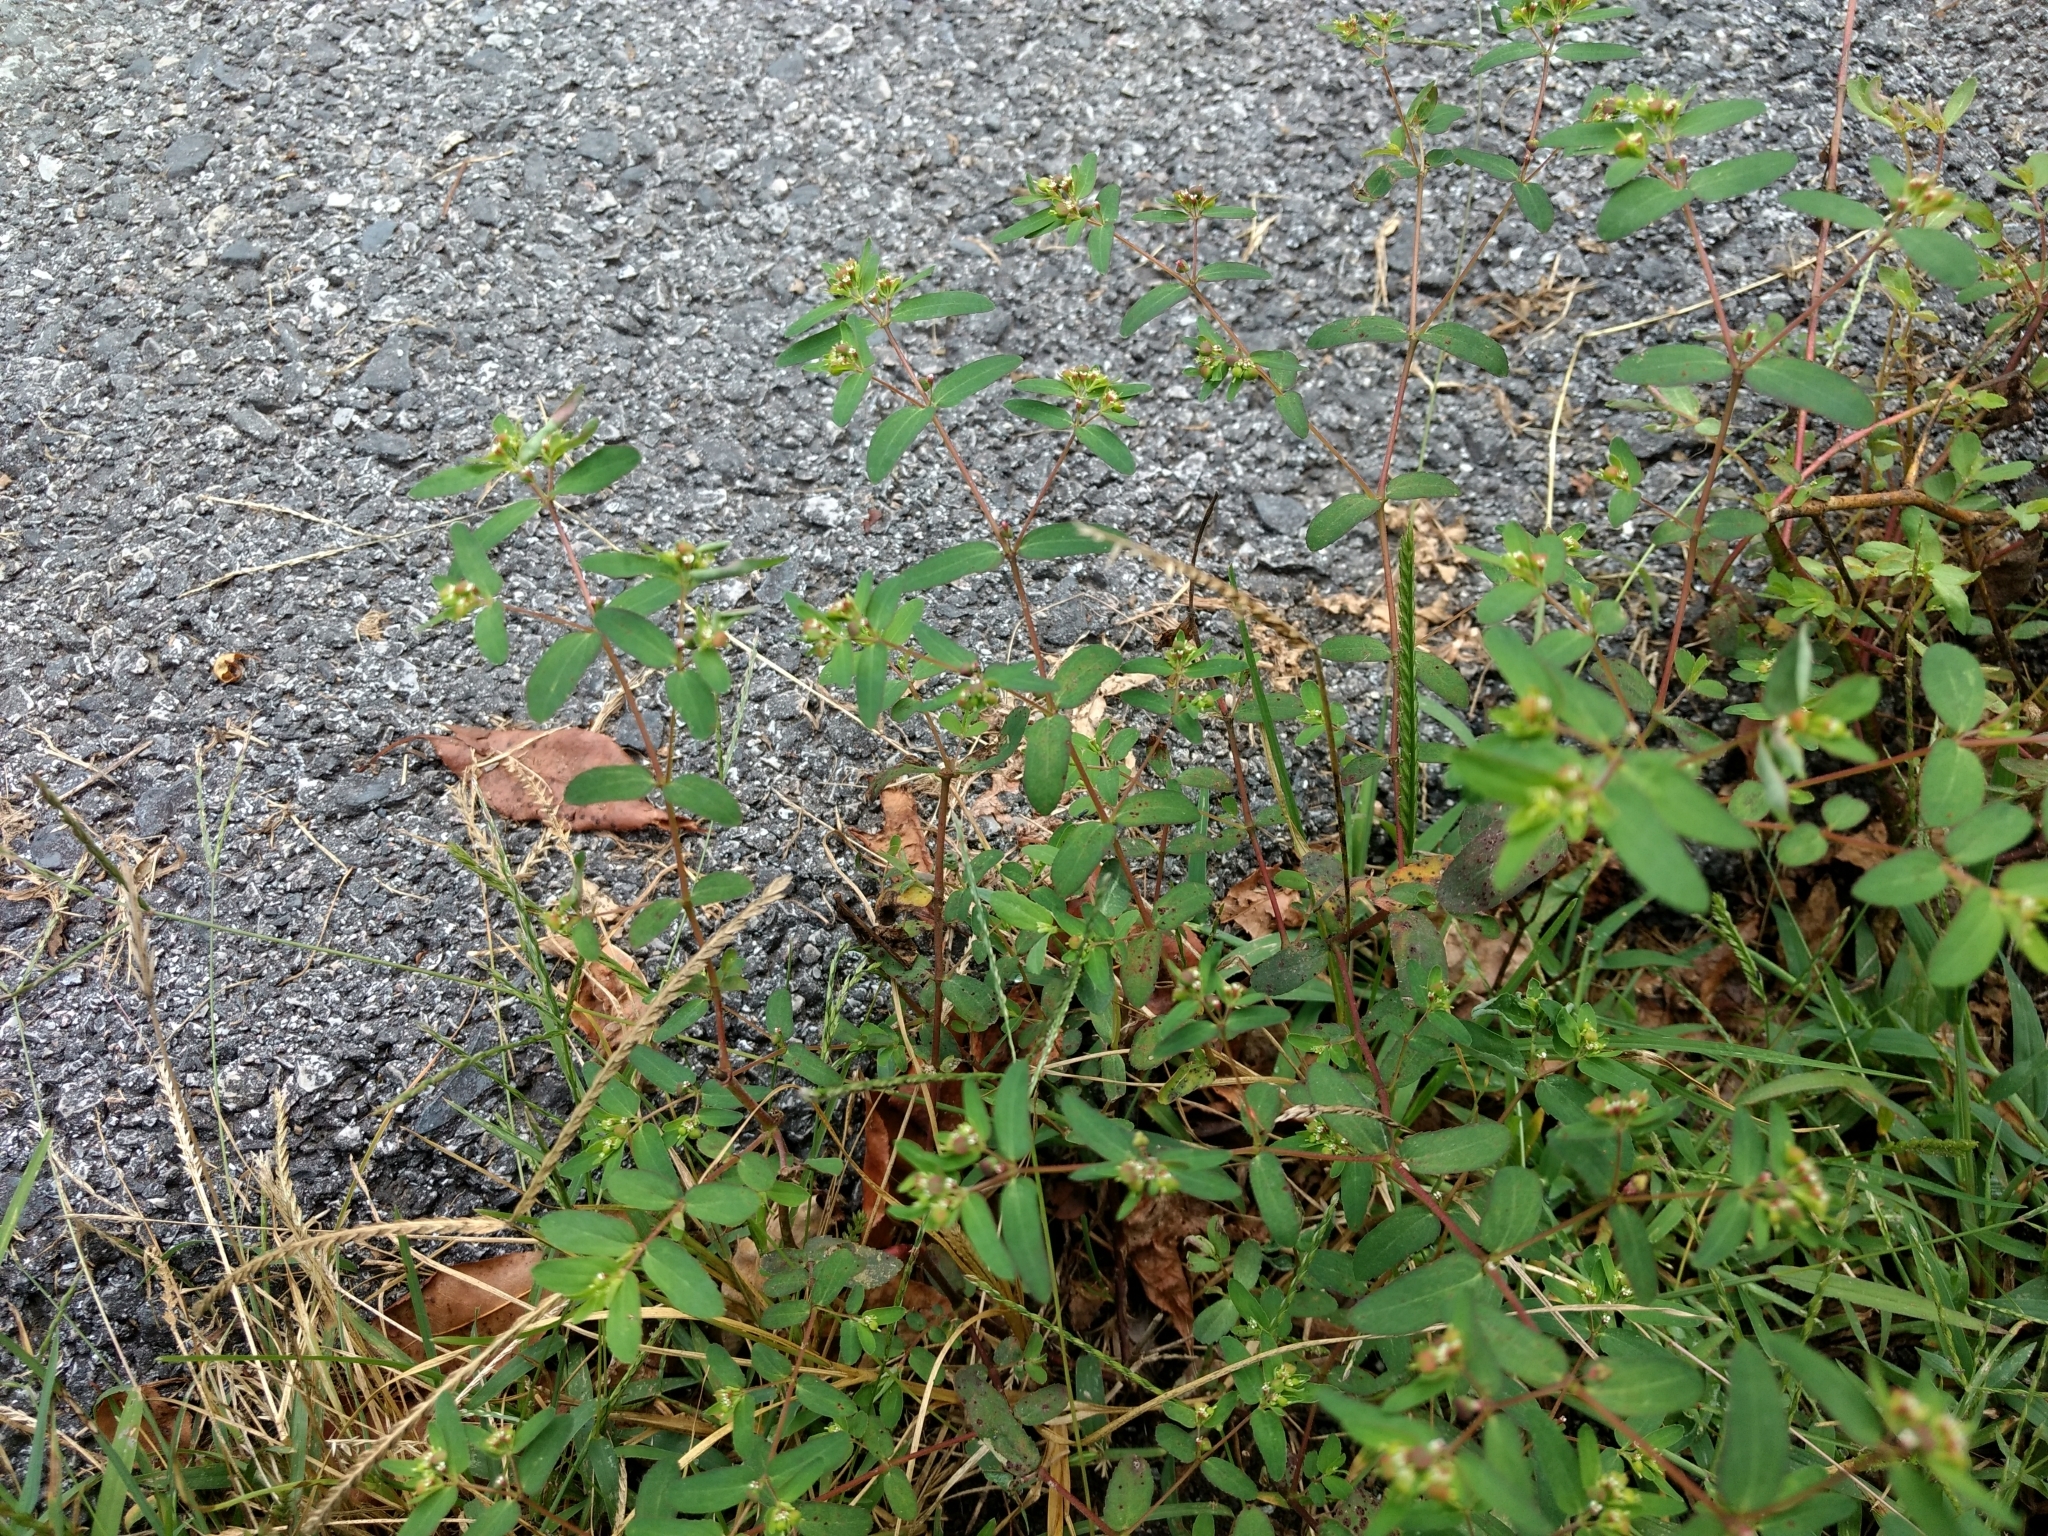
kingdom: Plantae
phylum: Tracheophyta
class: Magnoliopsida
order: Malpighiales
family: Euphorbiaceae
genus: Euphorbia
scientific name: Euphorbia nutans
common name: Eyebane
